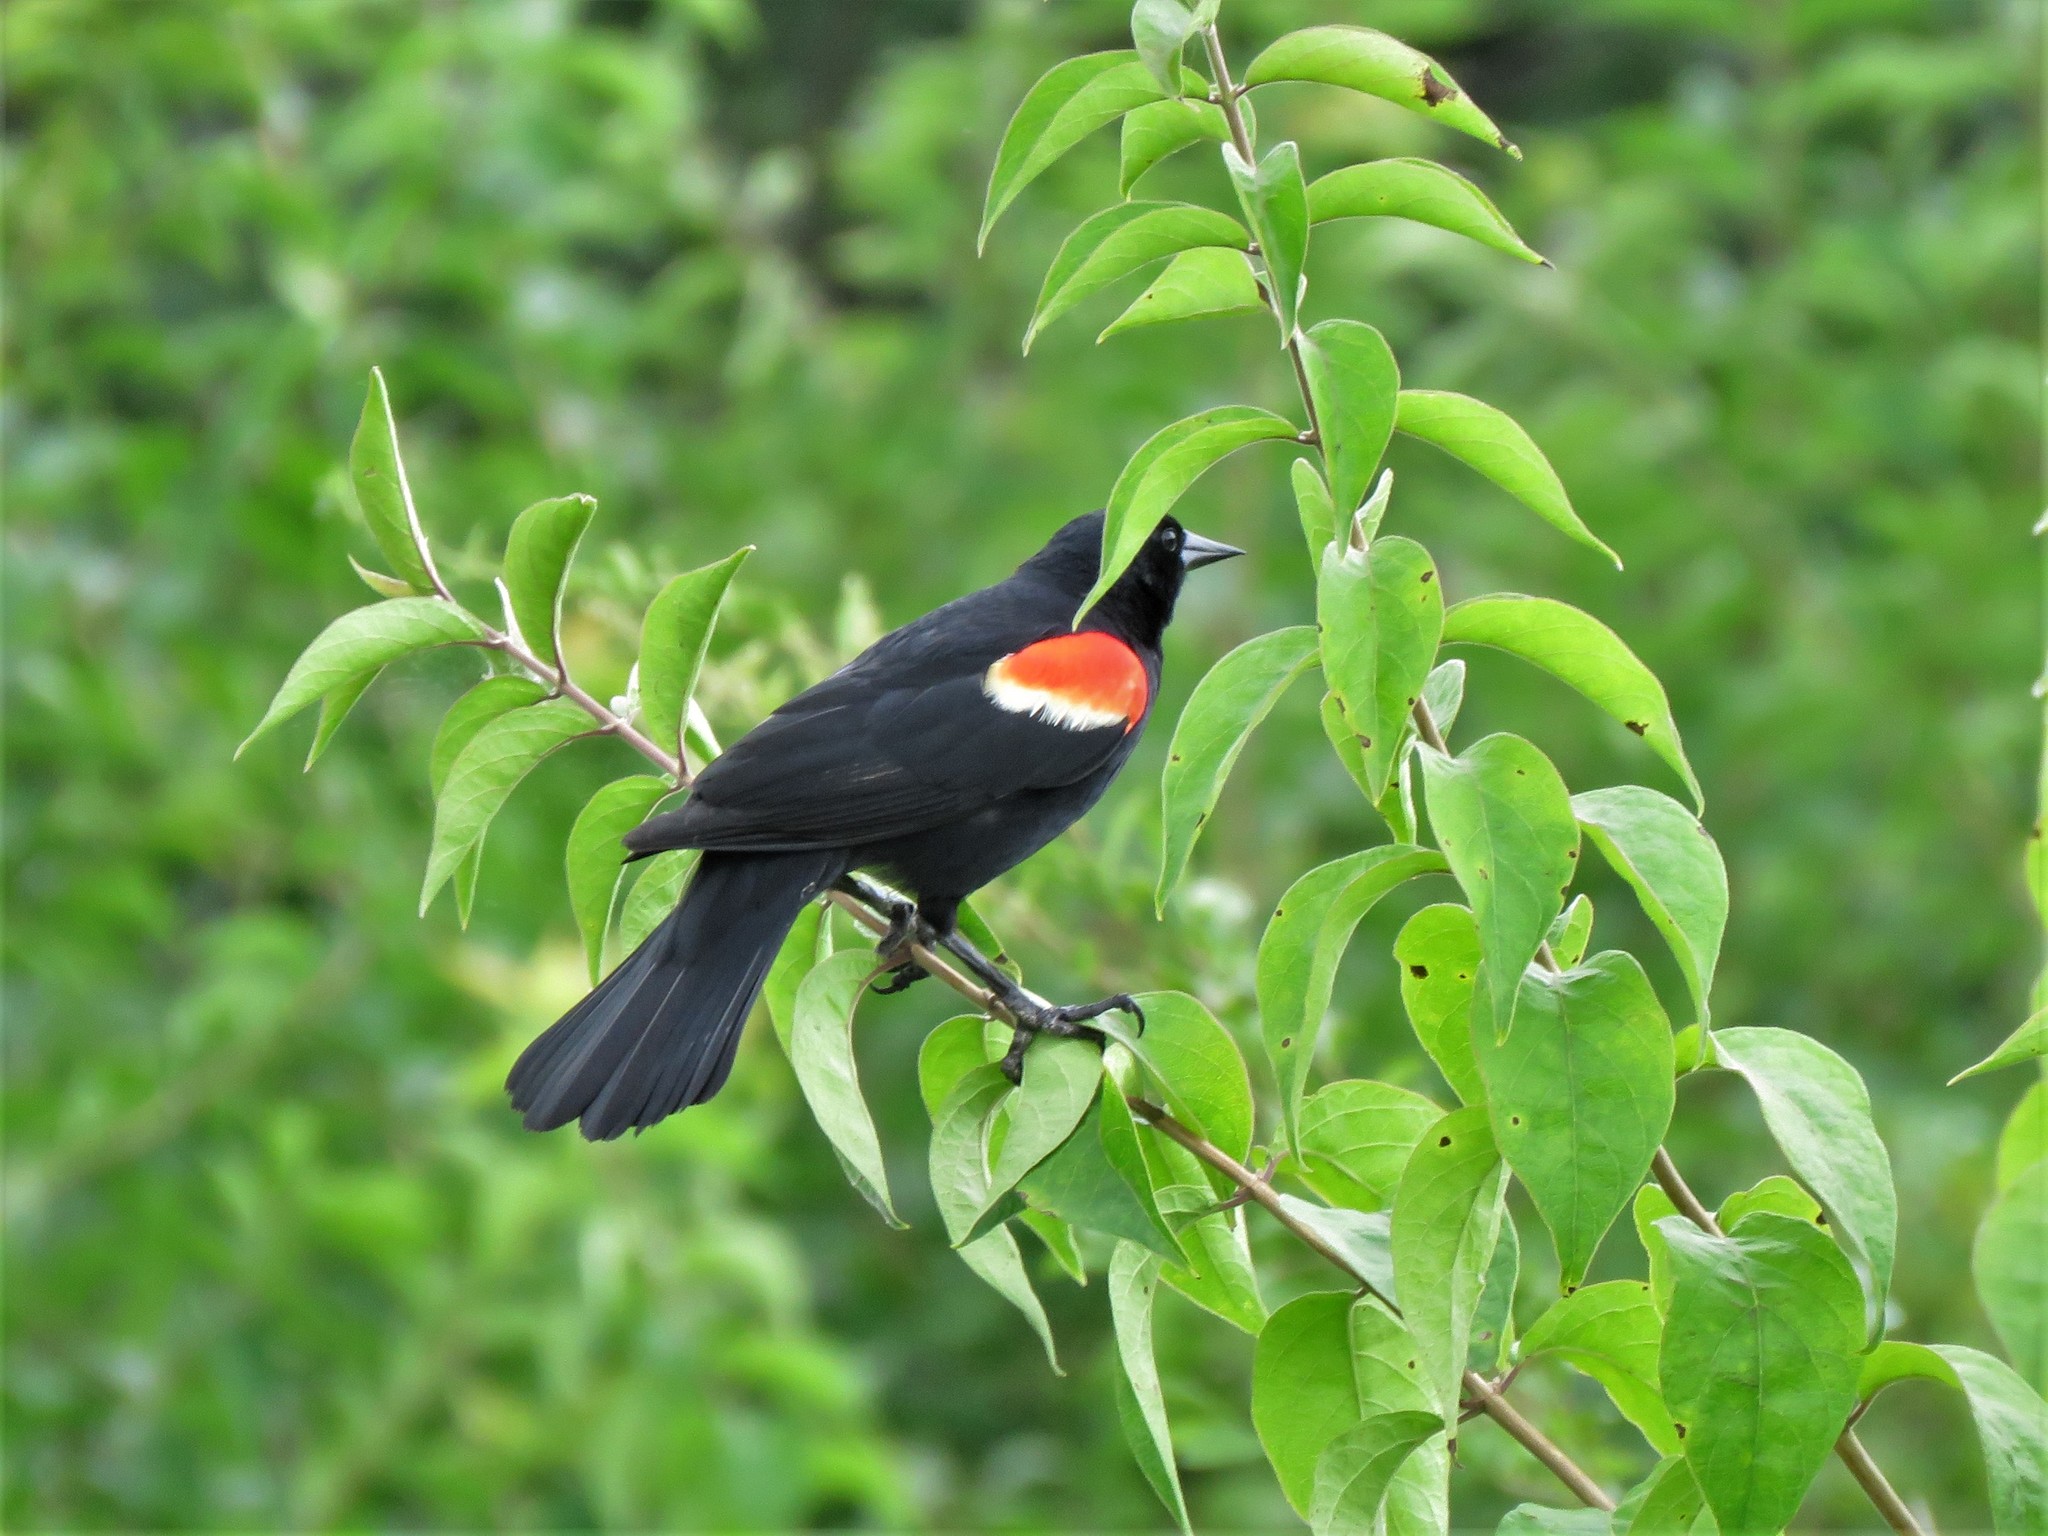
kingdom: Animalia
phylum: Chordata
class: Aves
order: Passeriformes
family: Icteridae
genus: Agelaius
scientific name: Agelaius phoeniceus
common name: Red-winged blackbird
